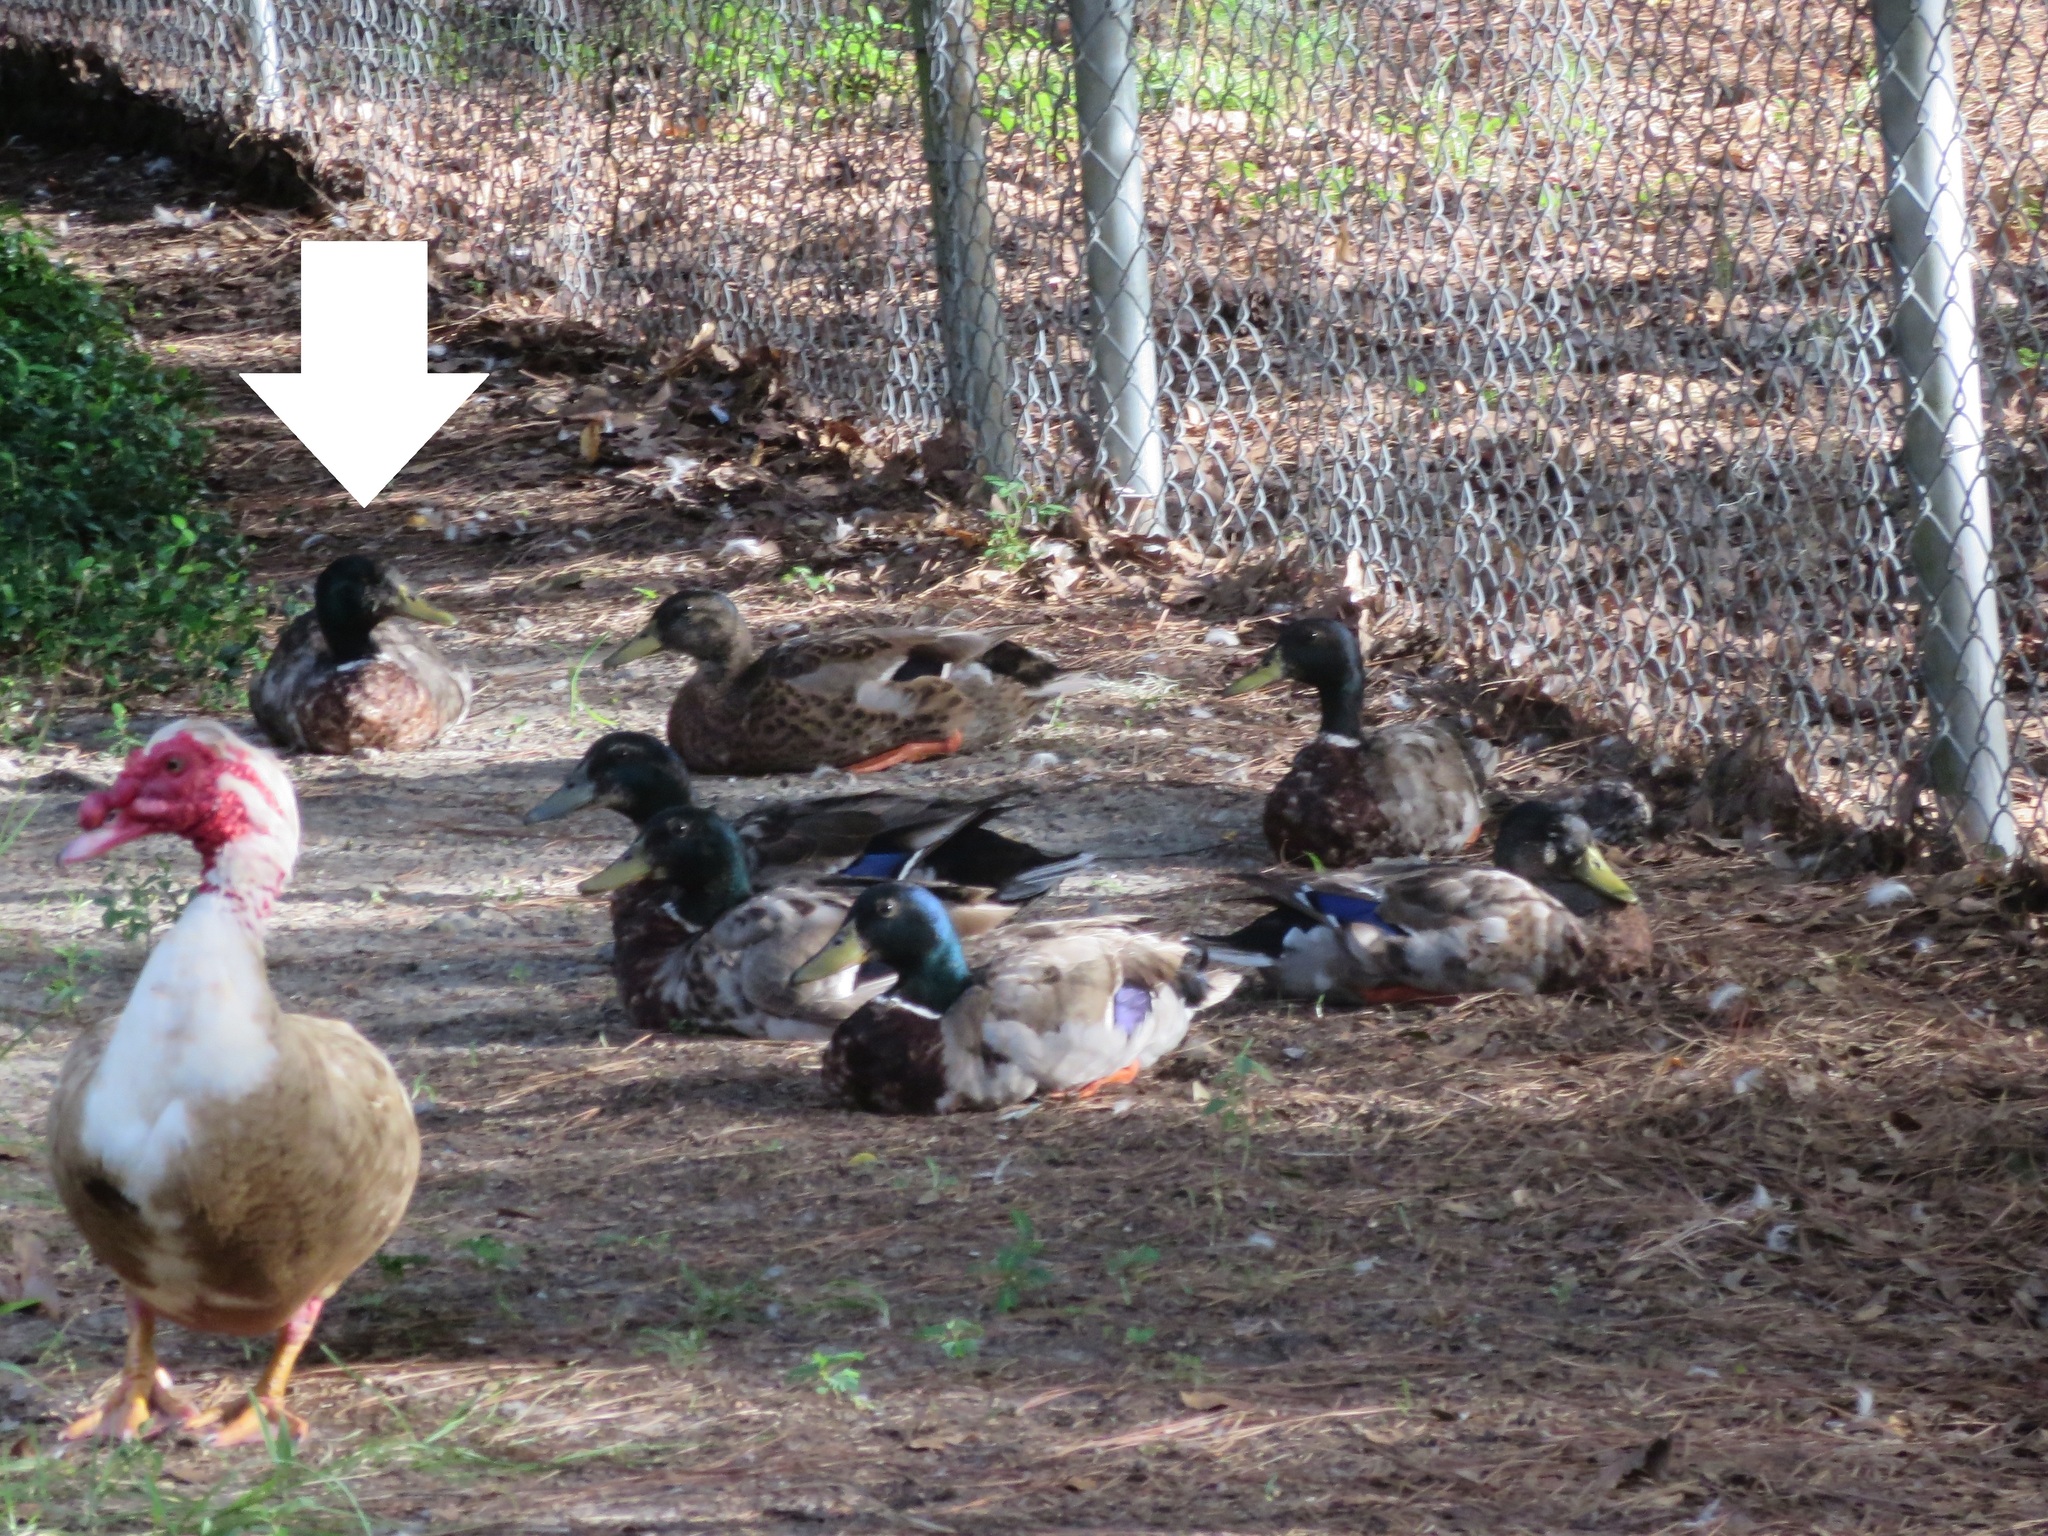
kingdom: Animalia
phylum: Chordata
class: Aves
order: Anseriformes
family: Anatidae
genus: Anas
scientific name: Anas platyrhynchos
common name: Mallard
